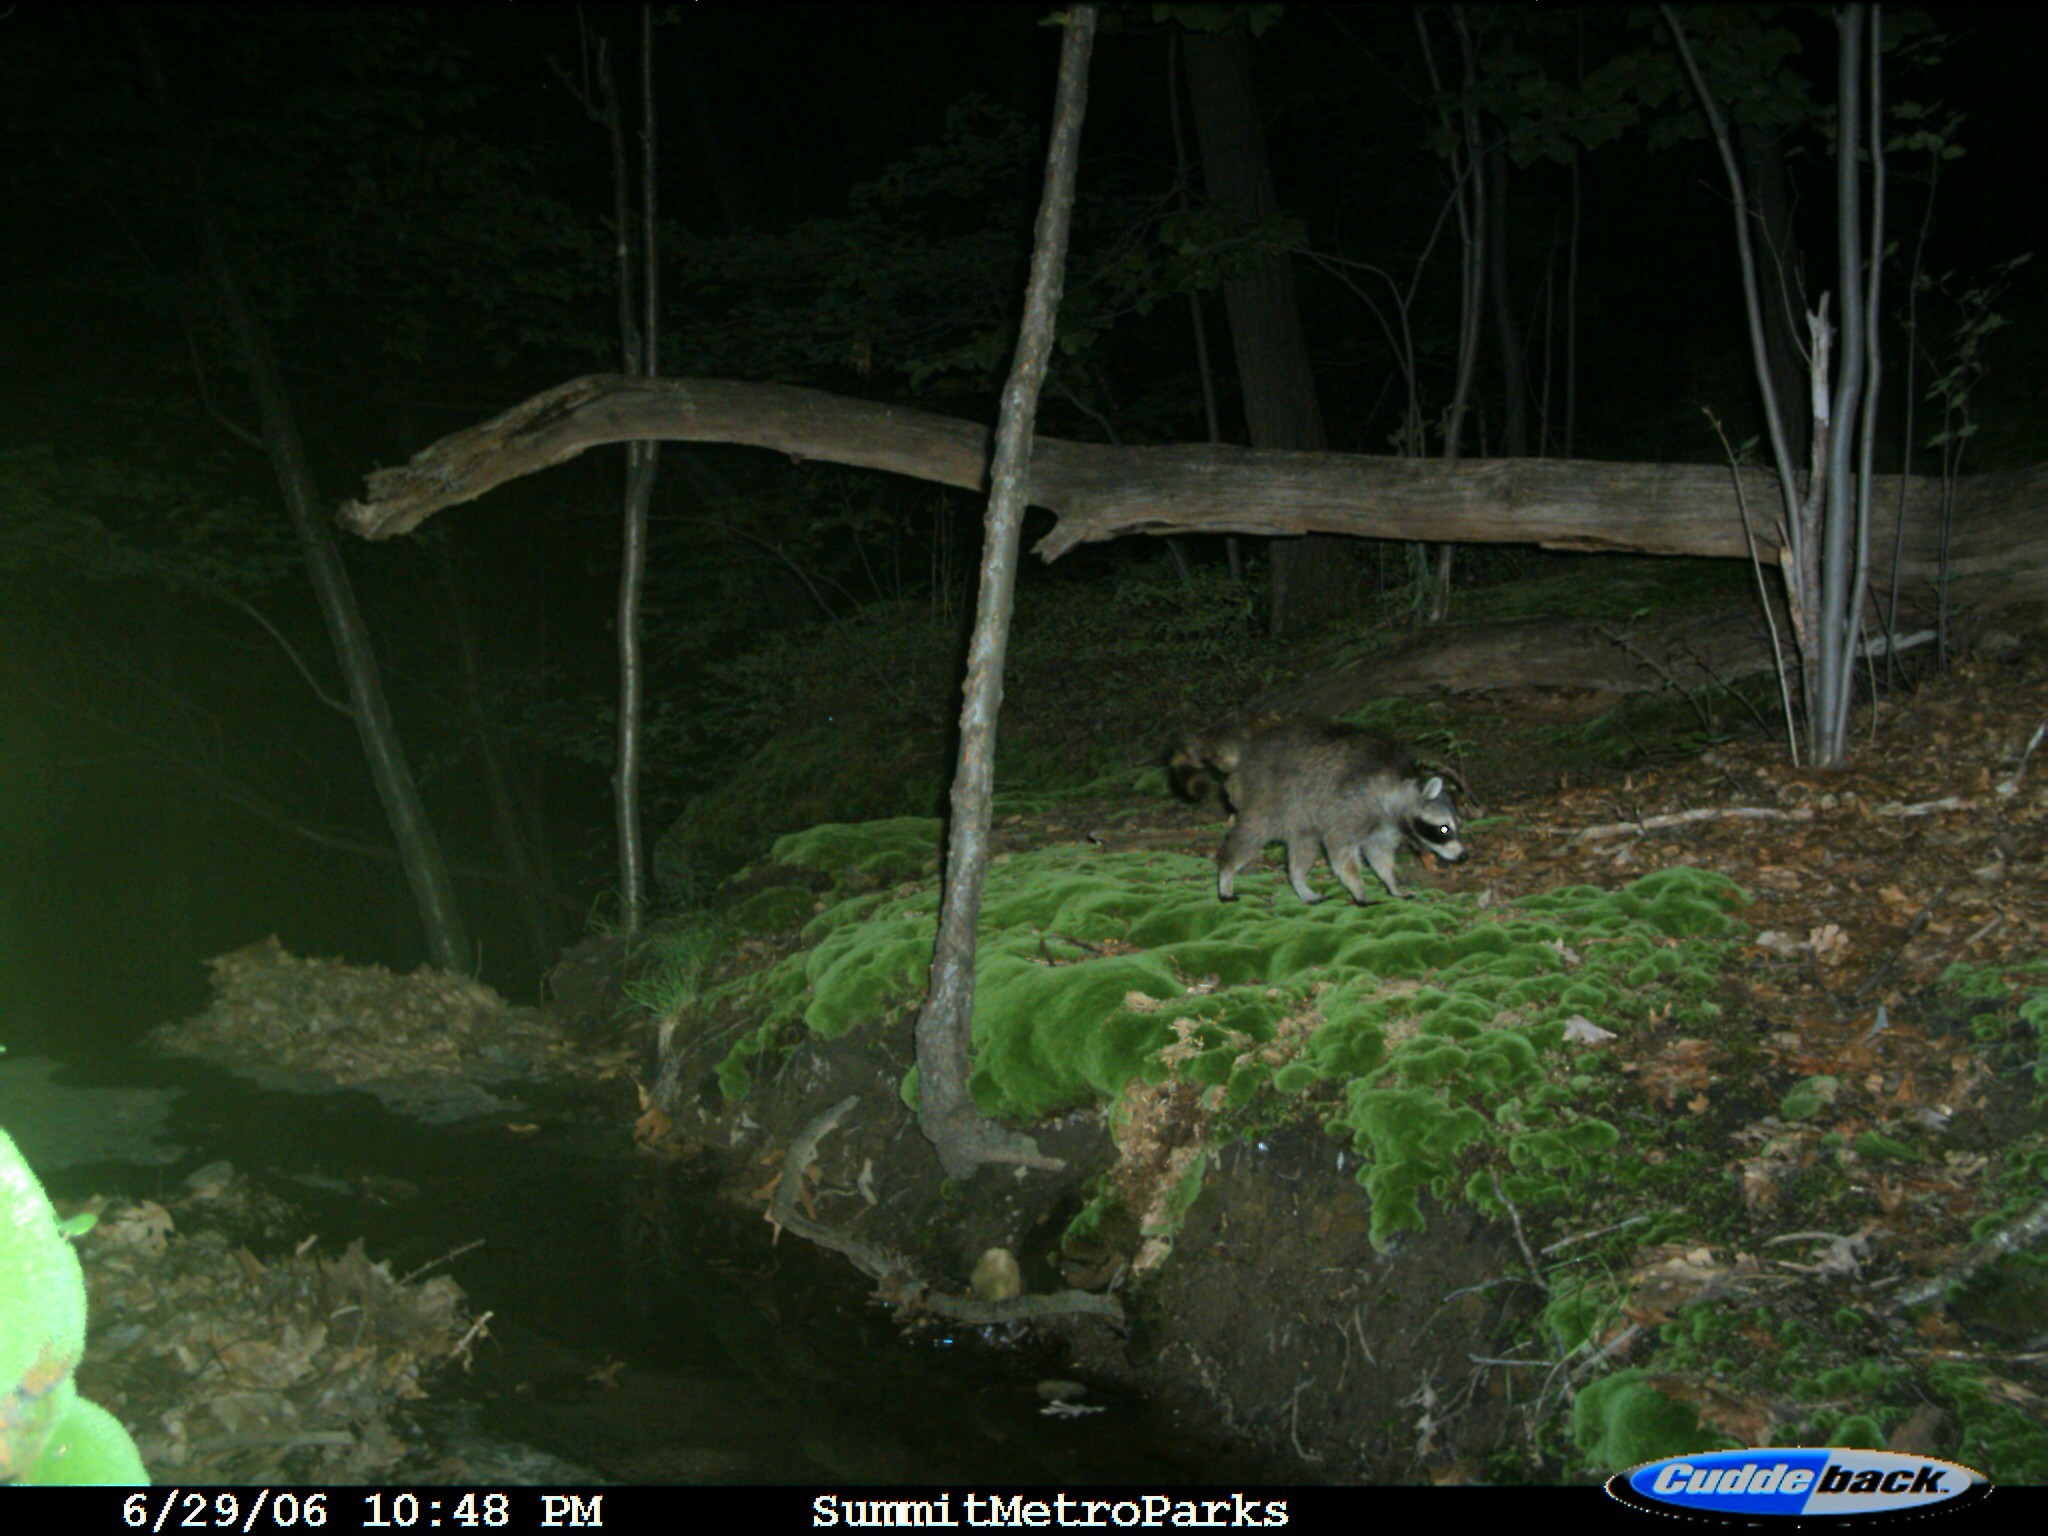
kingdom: Animalia
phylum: Chordata
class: Mammalia
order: Carnivora
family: Procyonidae
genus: Procyon
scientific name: Procyon lotor
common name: Raccoon
